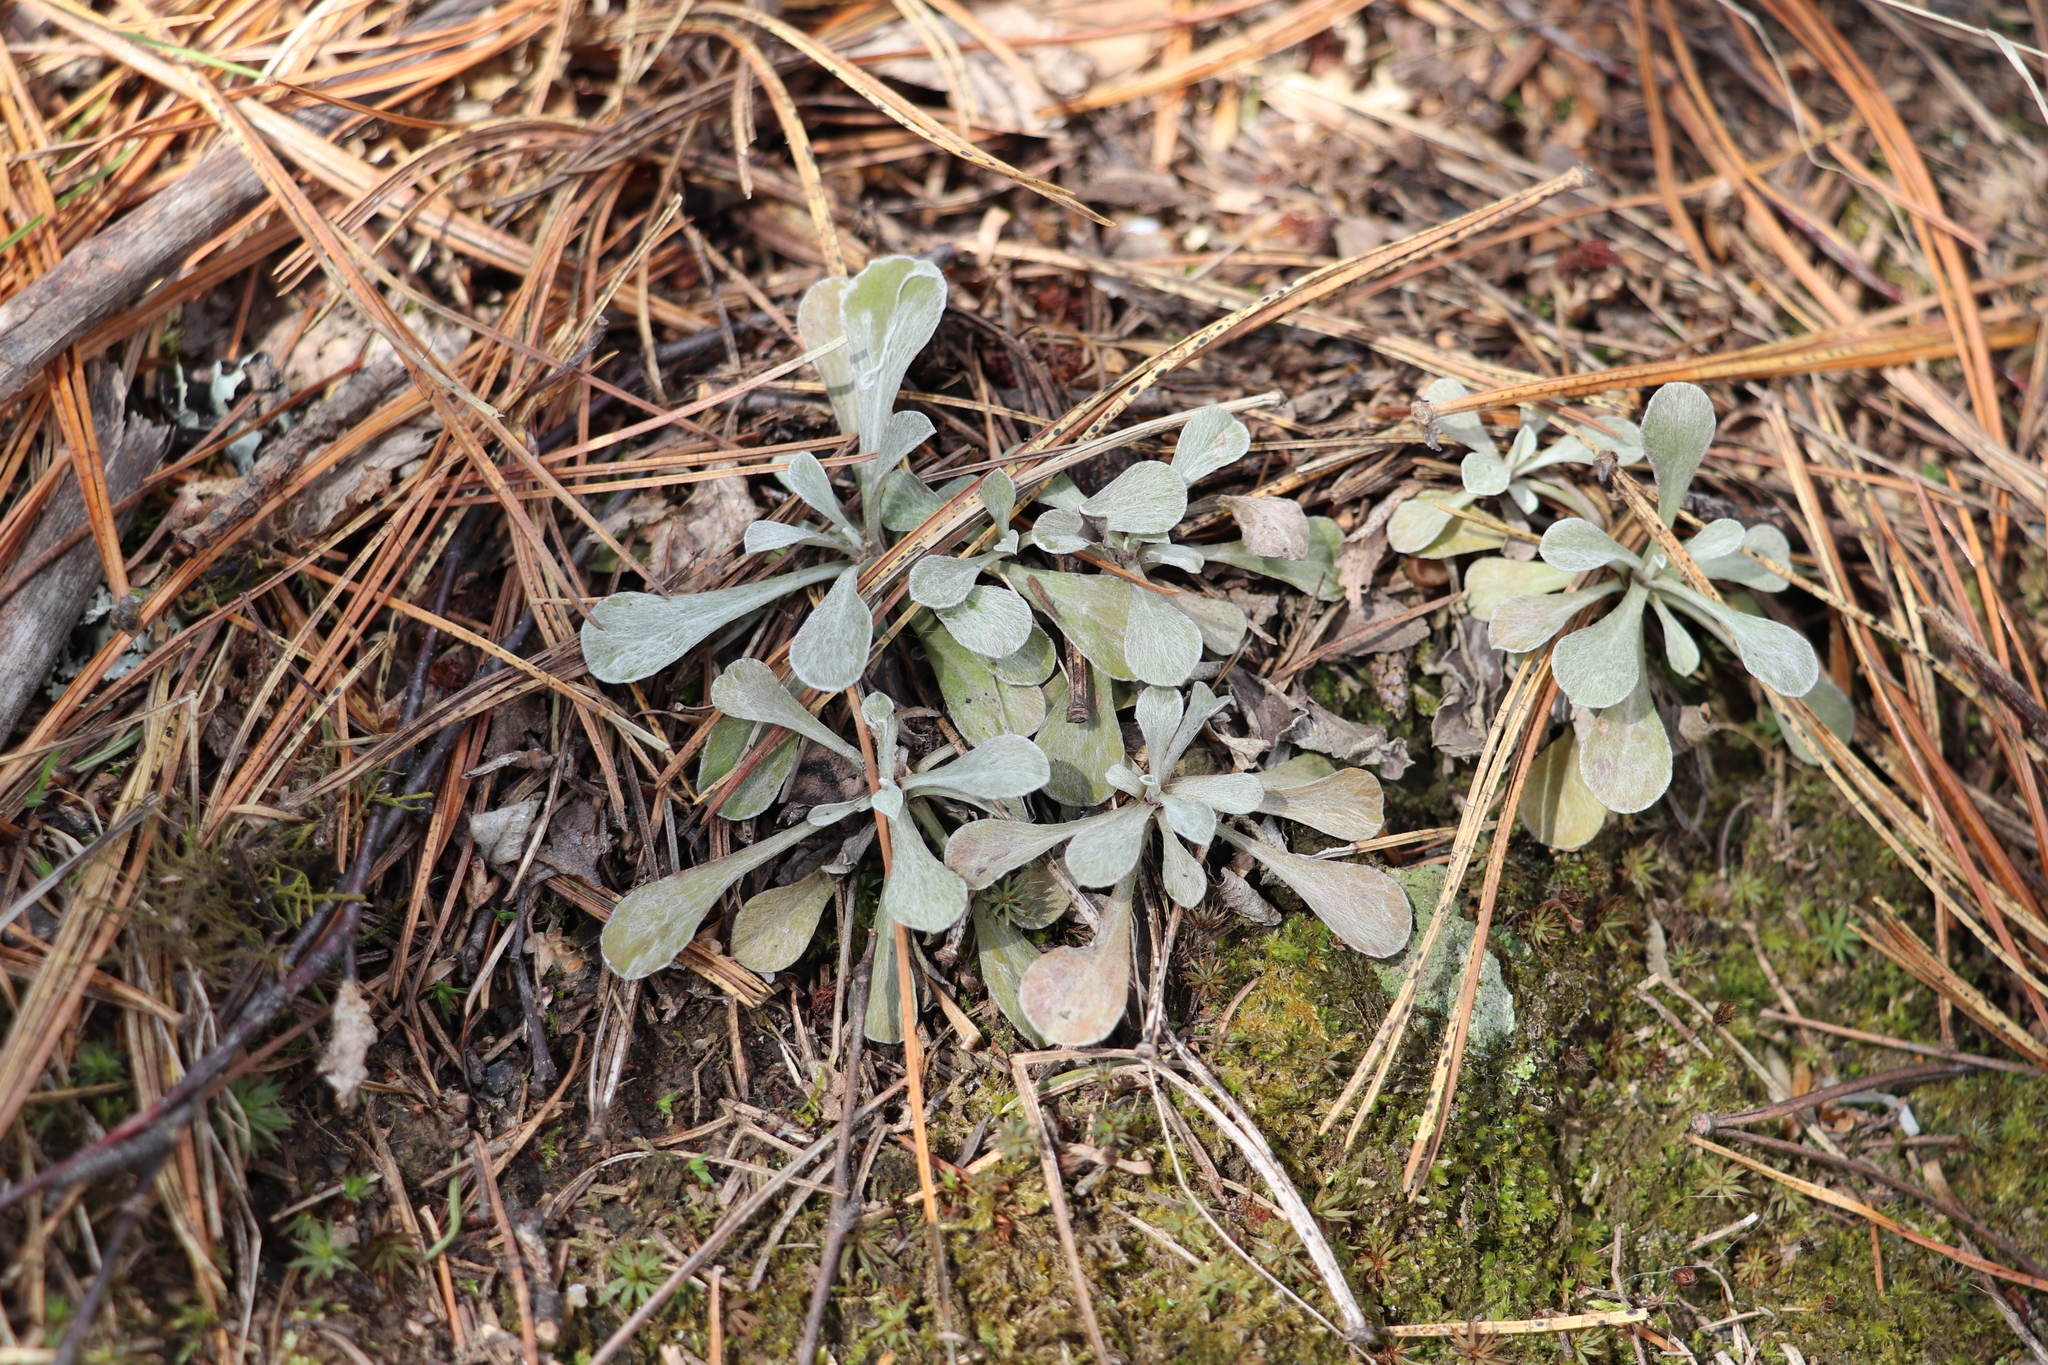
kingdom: Plantae
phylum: Tracheophyta
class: Magnoliopsida
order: Asterales
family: Asteraceae
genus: Antennaria
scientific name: Antennaria dioica
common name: Mountain everlasting
